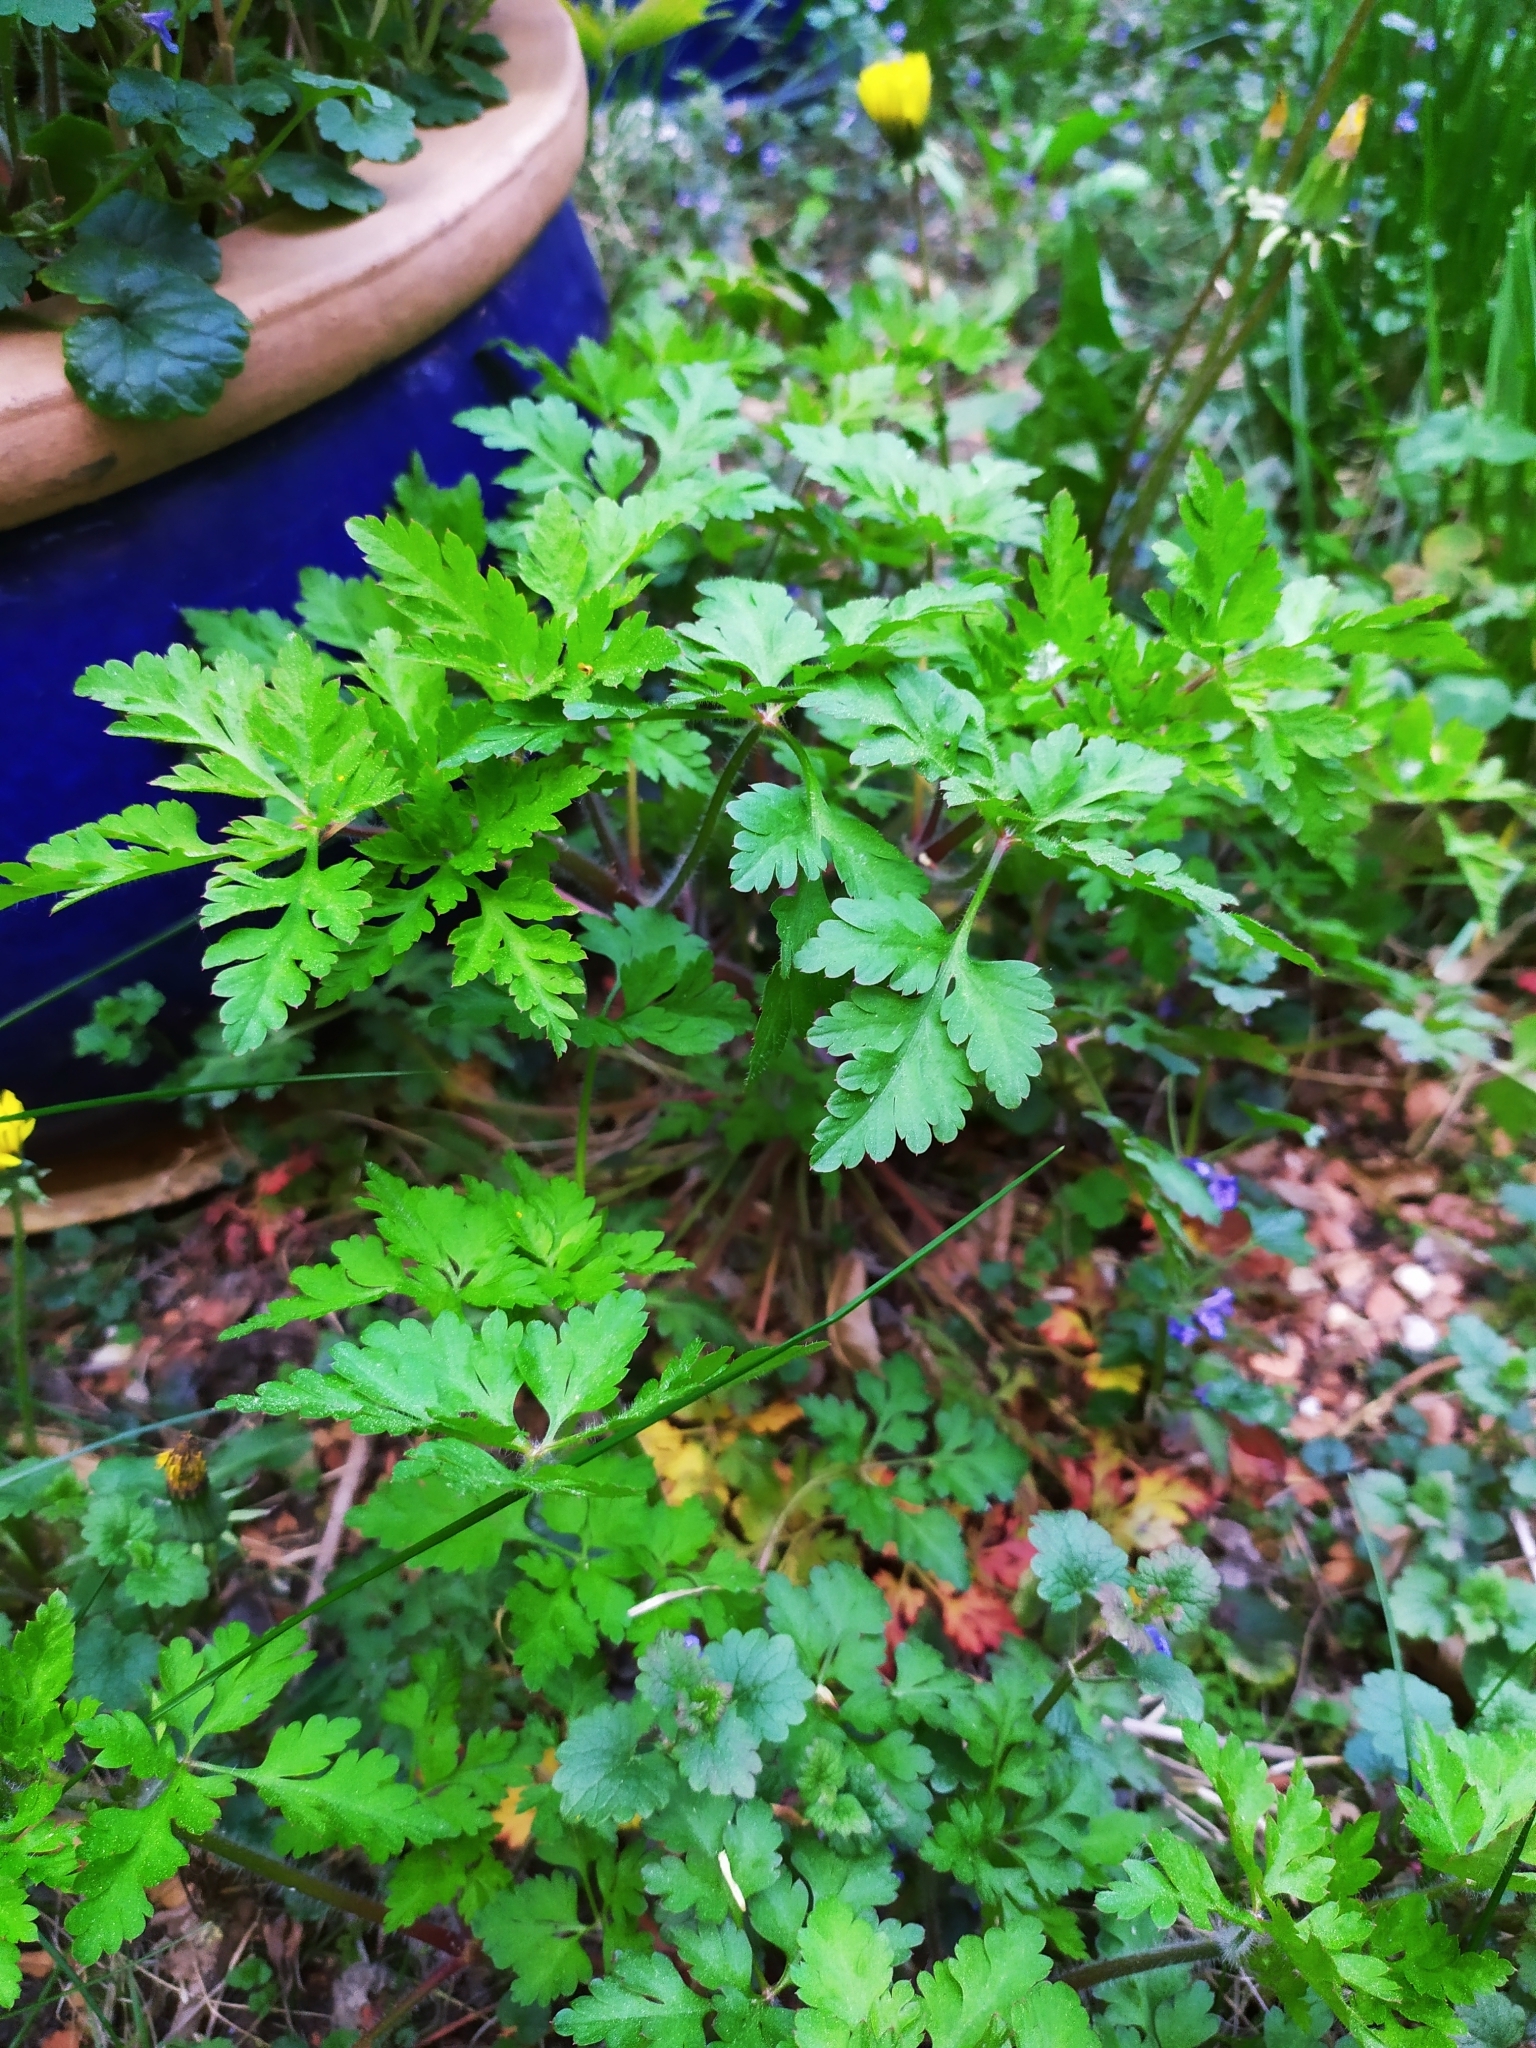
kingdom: Plantae
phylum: Tracheophyta
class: Magnoliopsida
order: Geraniales
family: Geraniaceae
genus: Geranium
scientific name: Geranium robertianum
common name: Herb-robert
